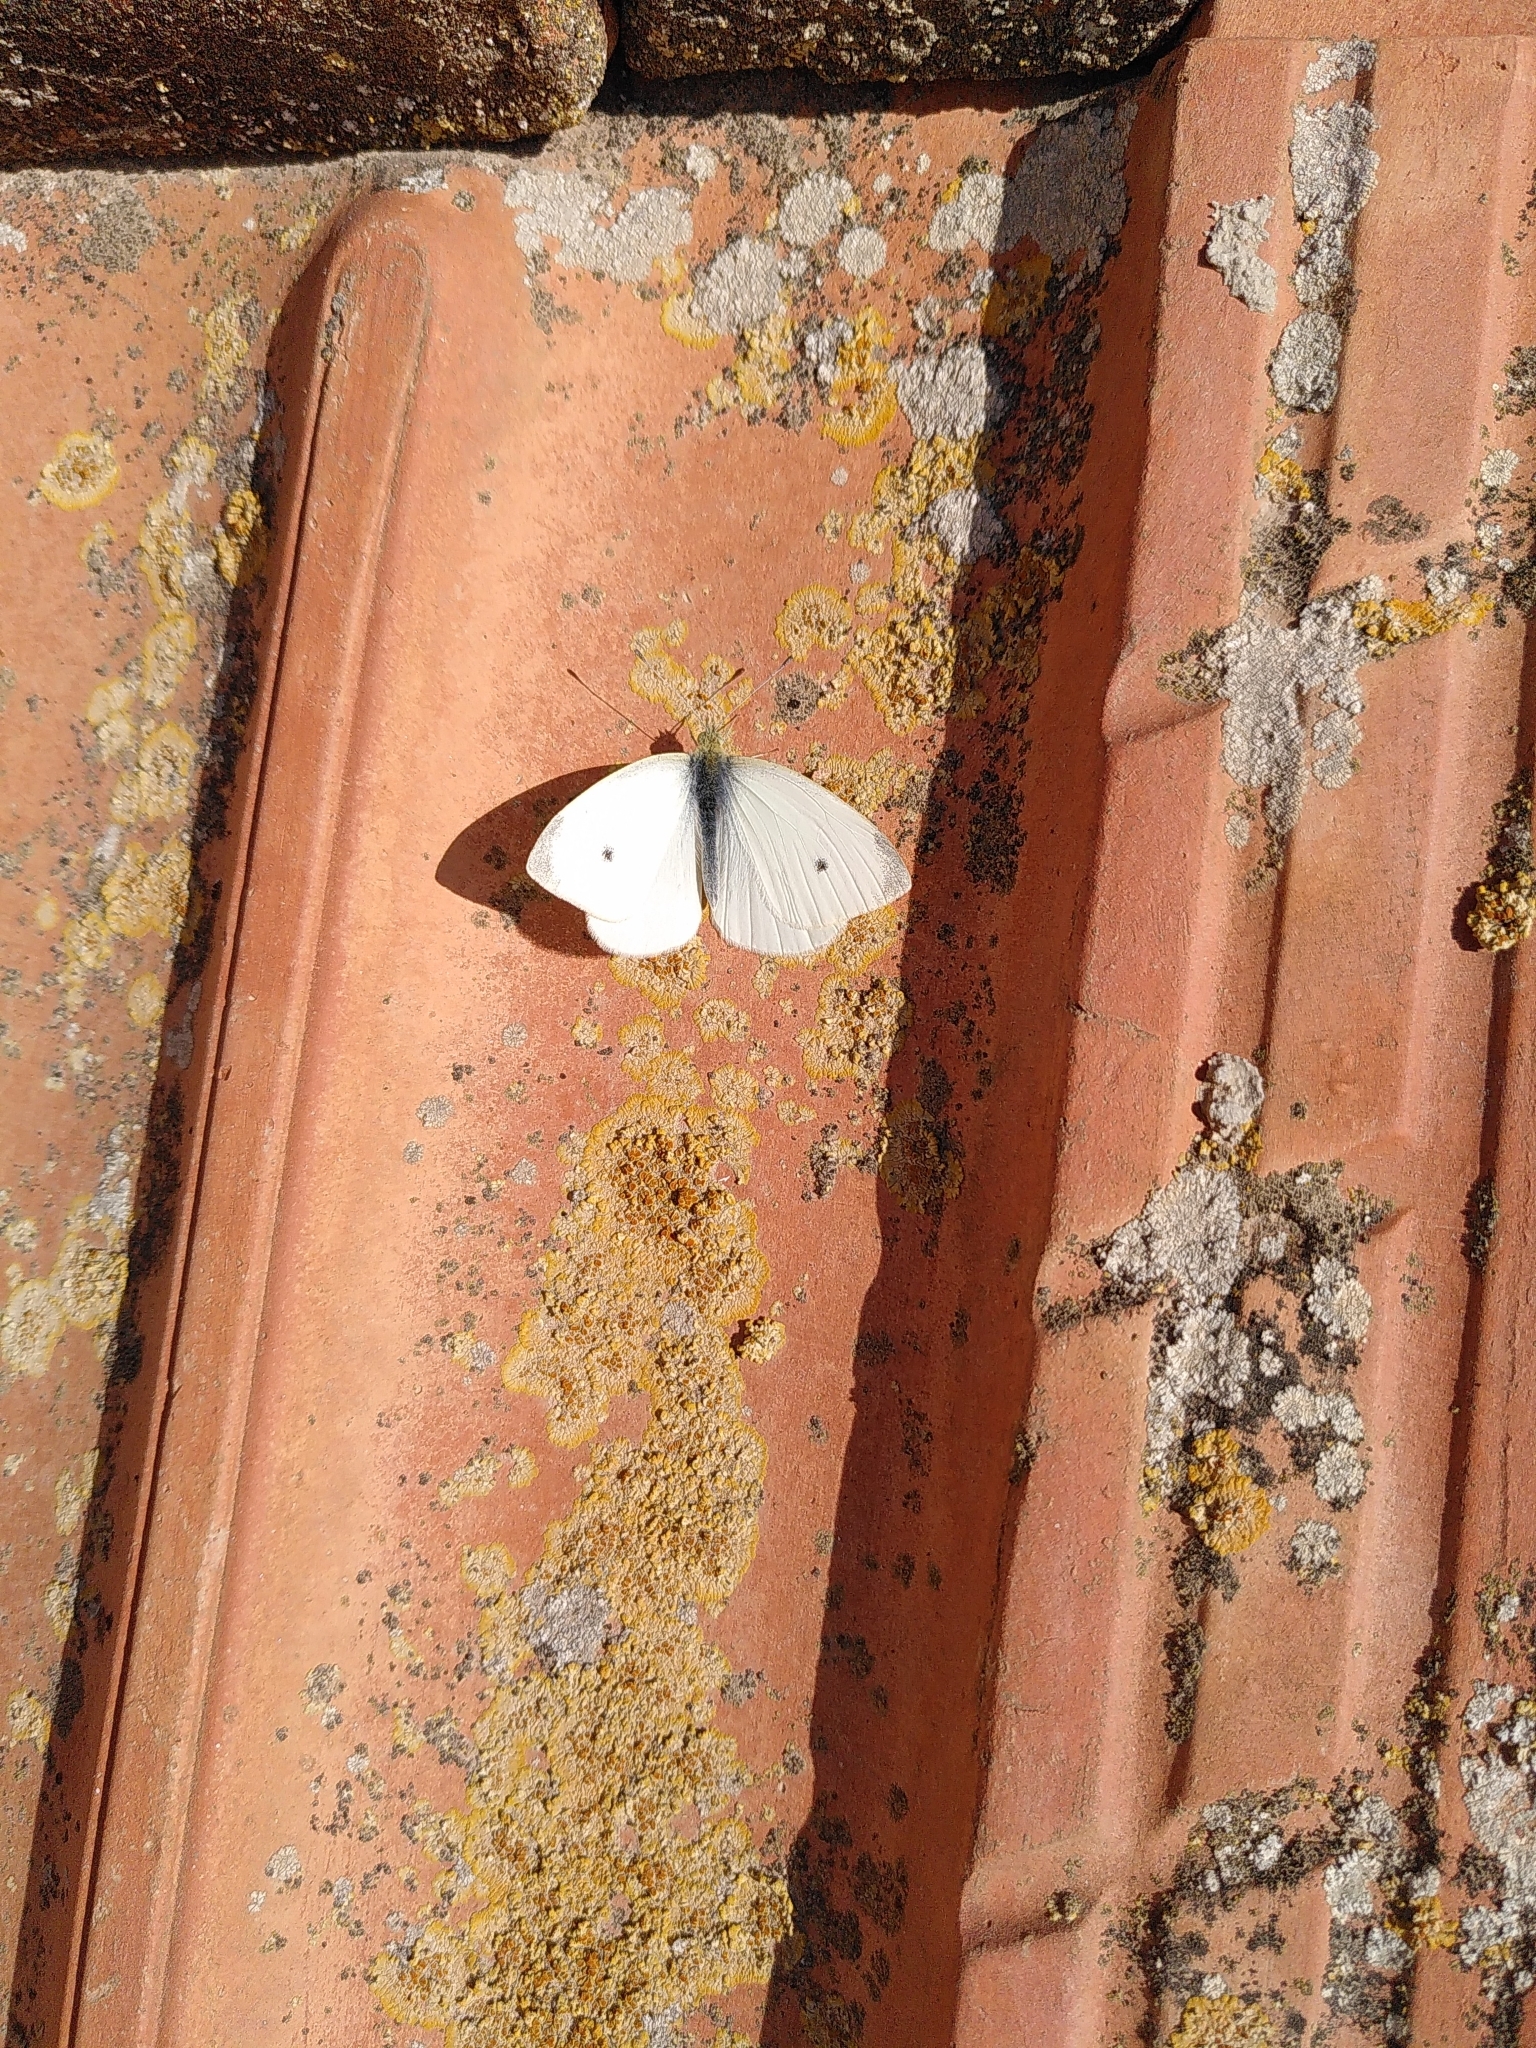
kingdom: Animalia
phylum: Arthropoda
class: Insecta
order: Lepidoptera
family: Pieridae
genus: Pieris
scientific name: Pieris rapae
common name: Small white
